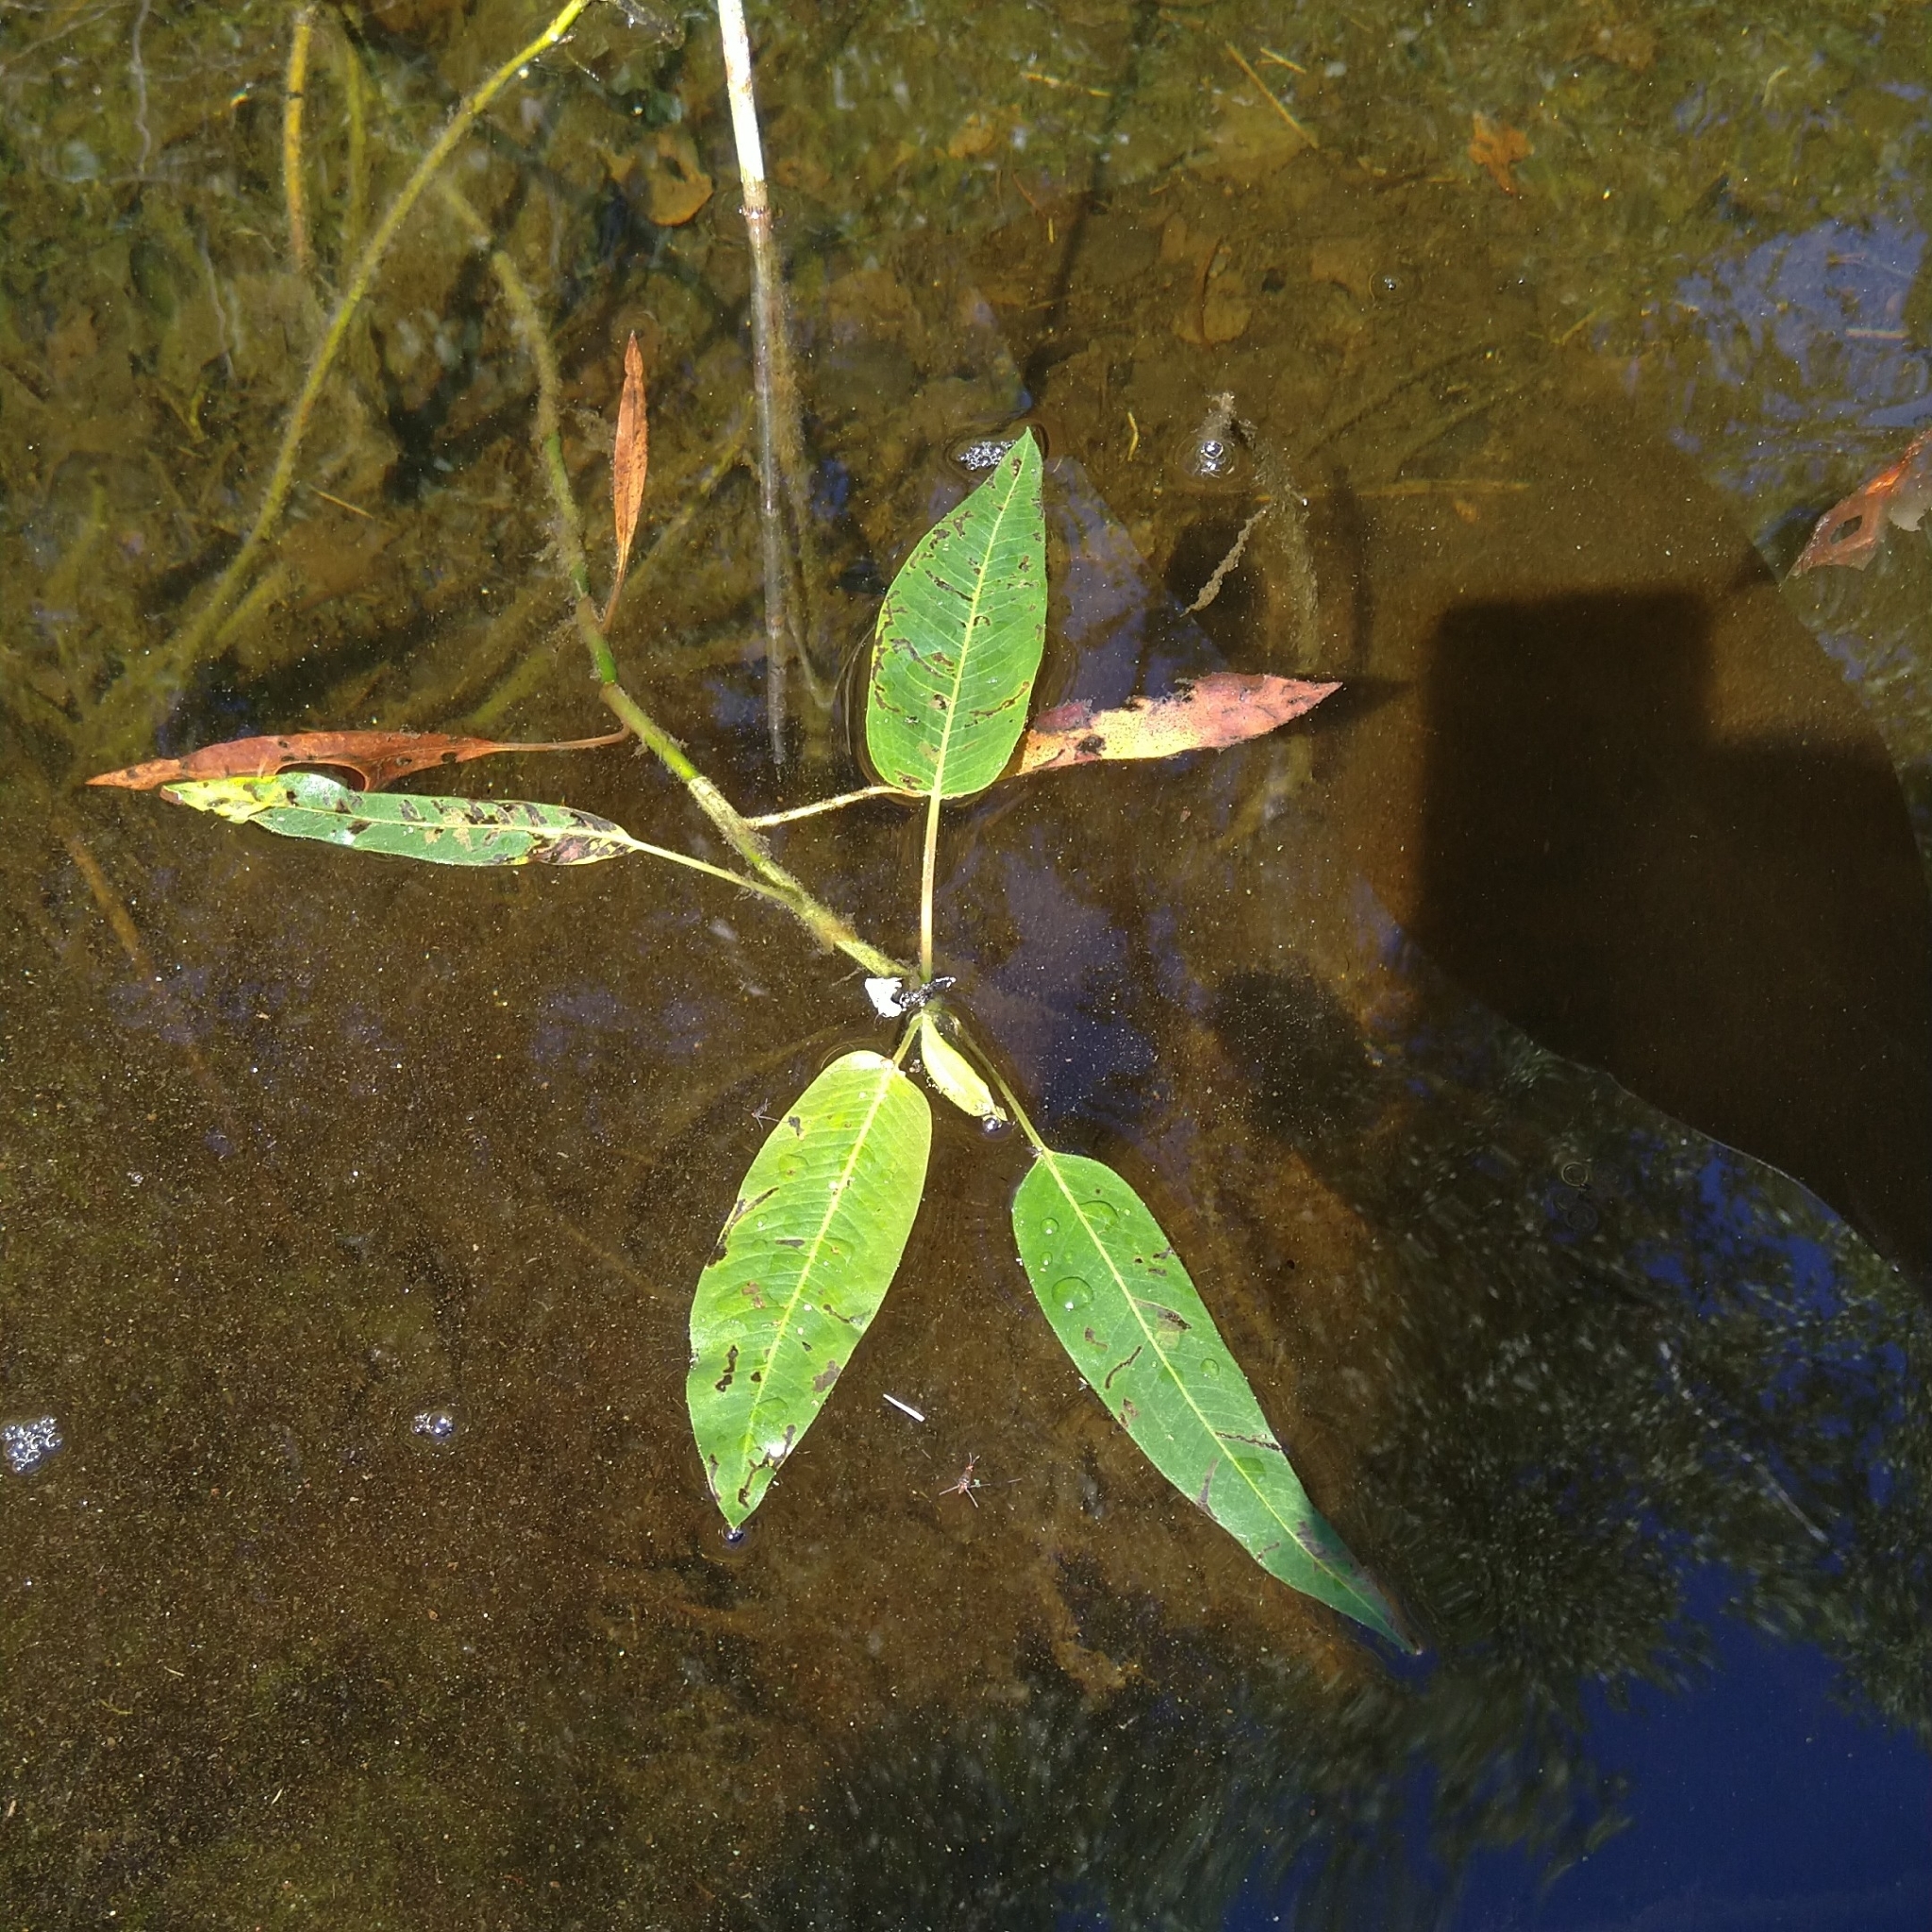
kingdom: Plantae
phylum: Tracheophyta
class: Magnoliopsida
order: Caryophyllales
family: Polygonaceae
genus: Persicaria
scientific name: Persicaria amphibia
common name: Amphibious bistort
